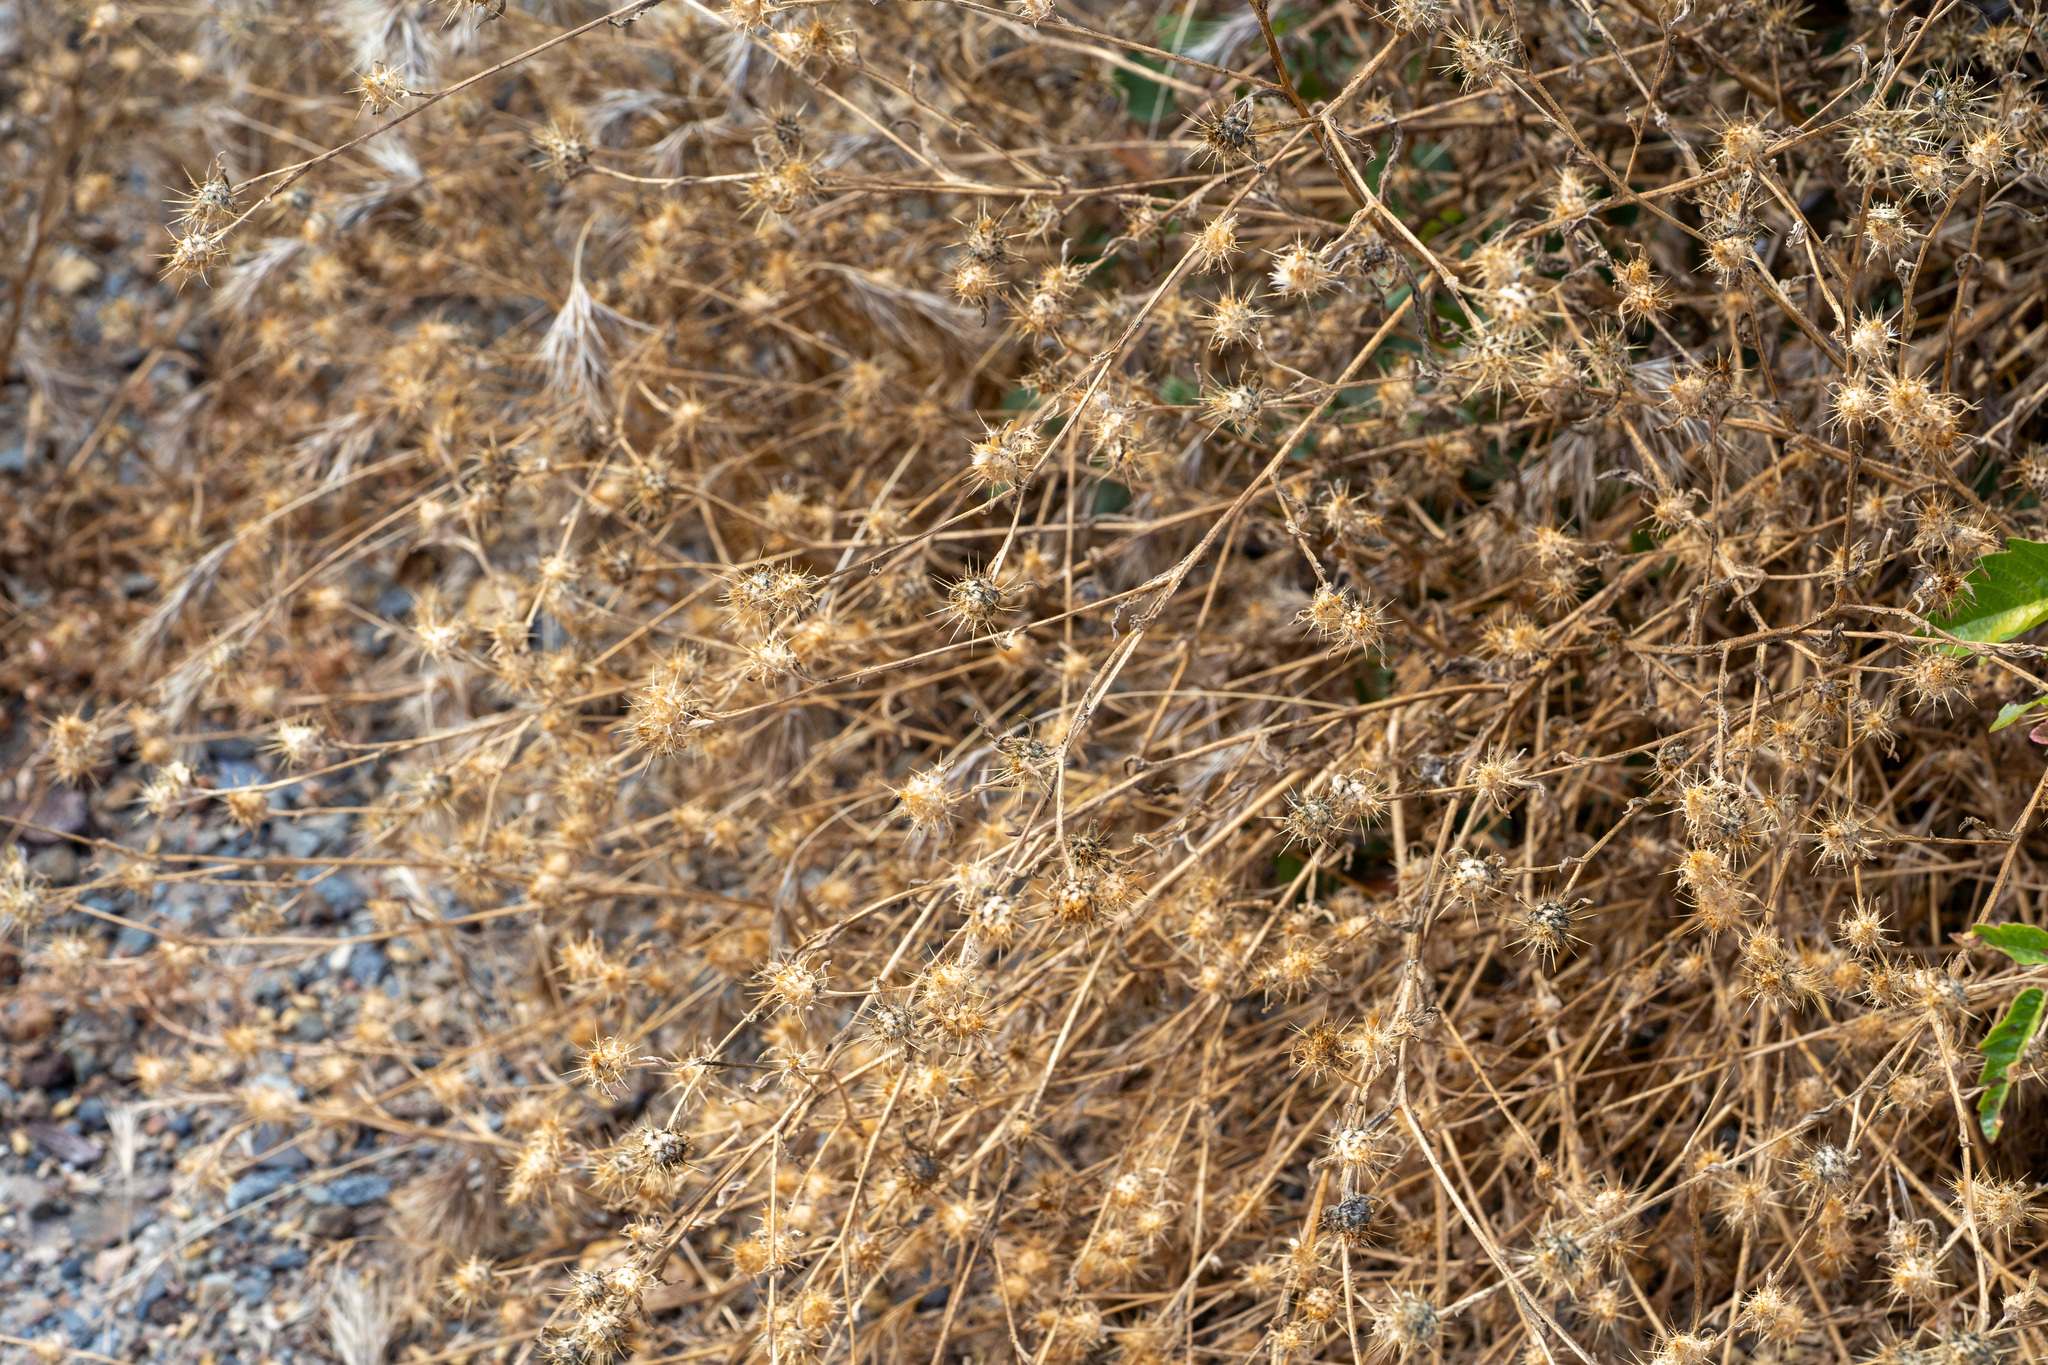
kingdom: Plantae
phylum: Tracheophyta
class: Magnoliopsida
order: Asterales
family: Asteraceae
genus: Centaurea
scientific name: Centaurea melitensis
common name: Maltese star-thistle
